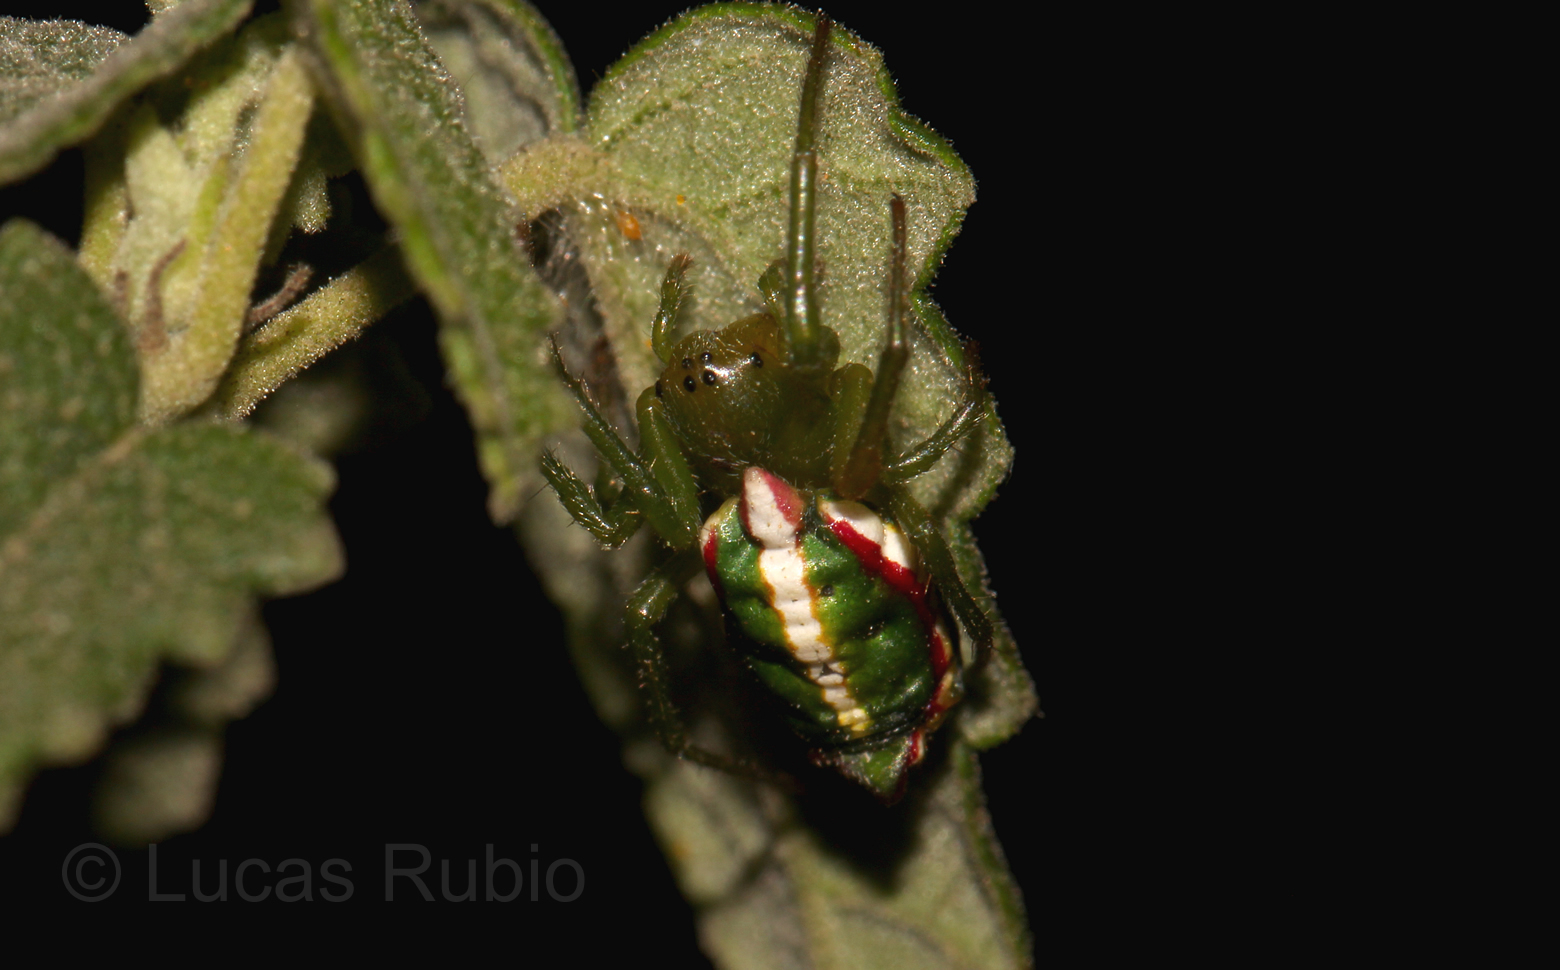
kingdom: Animalia
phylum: Arthropoda
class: Arachnida
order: Araneae
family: Araneidae
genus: Alpaida
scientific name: Alpaida rostratula
